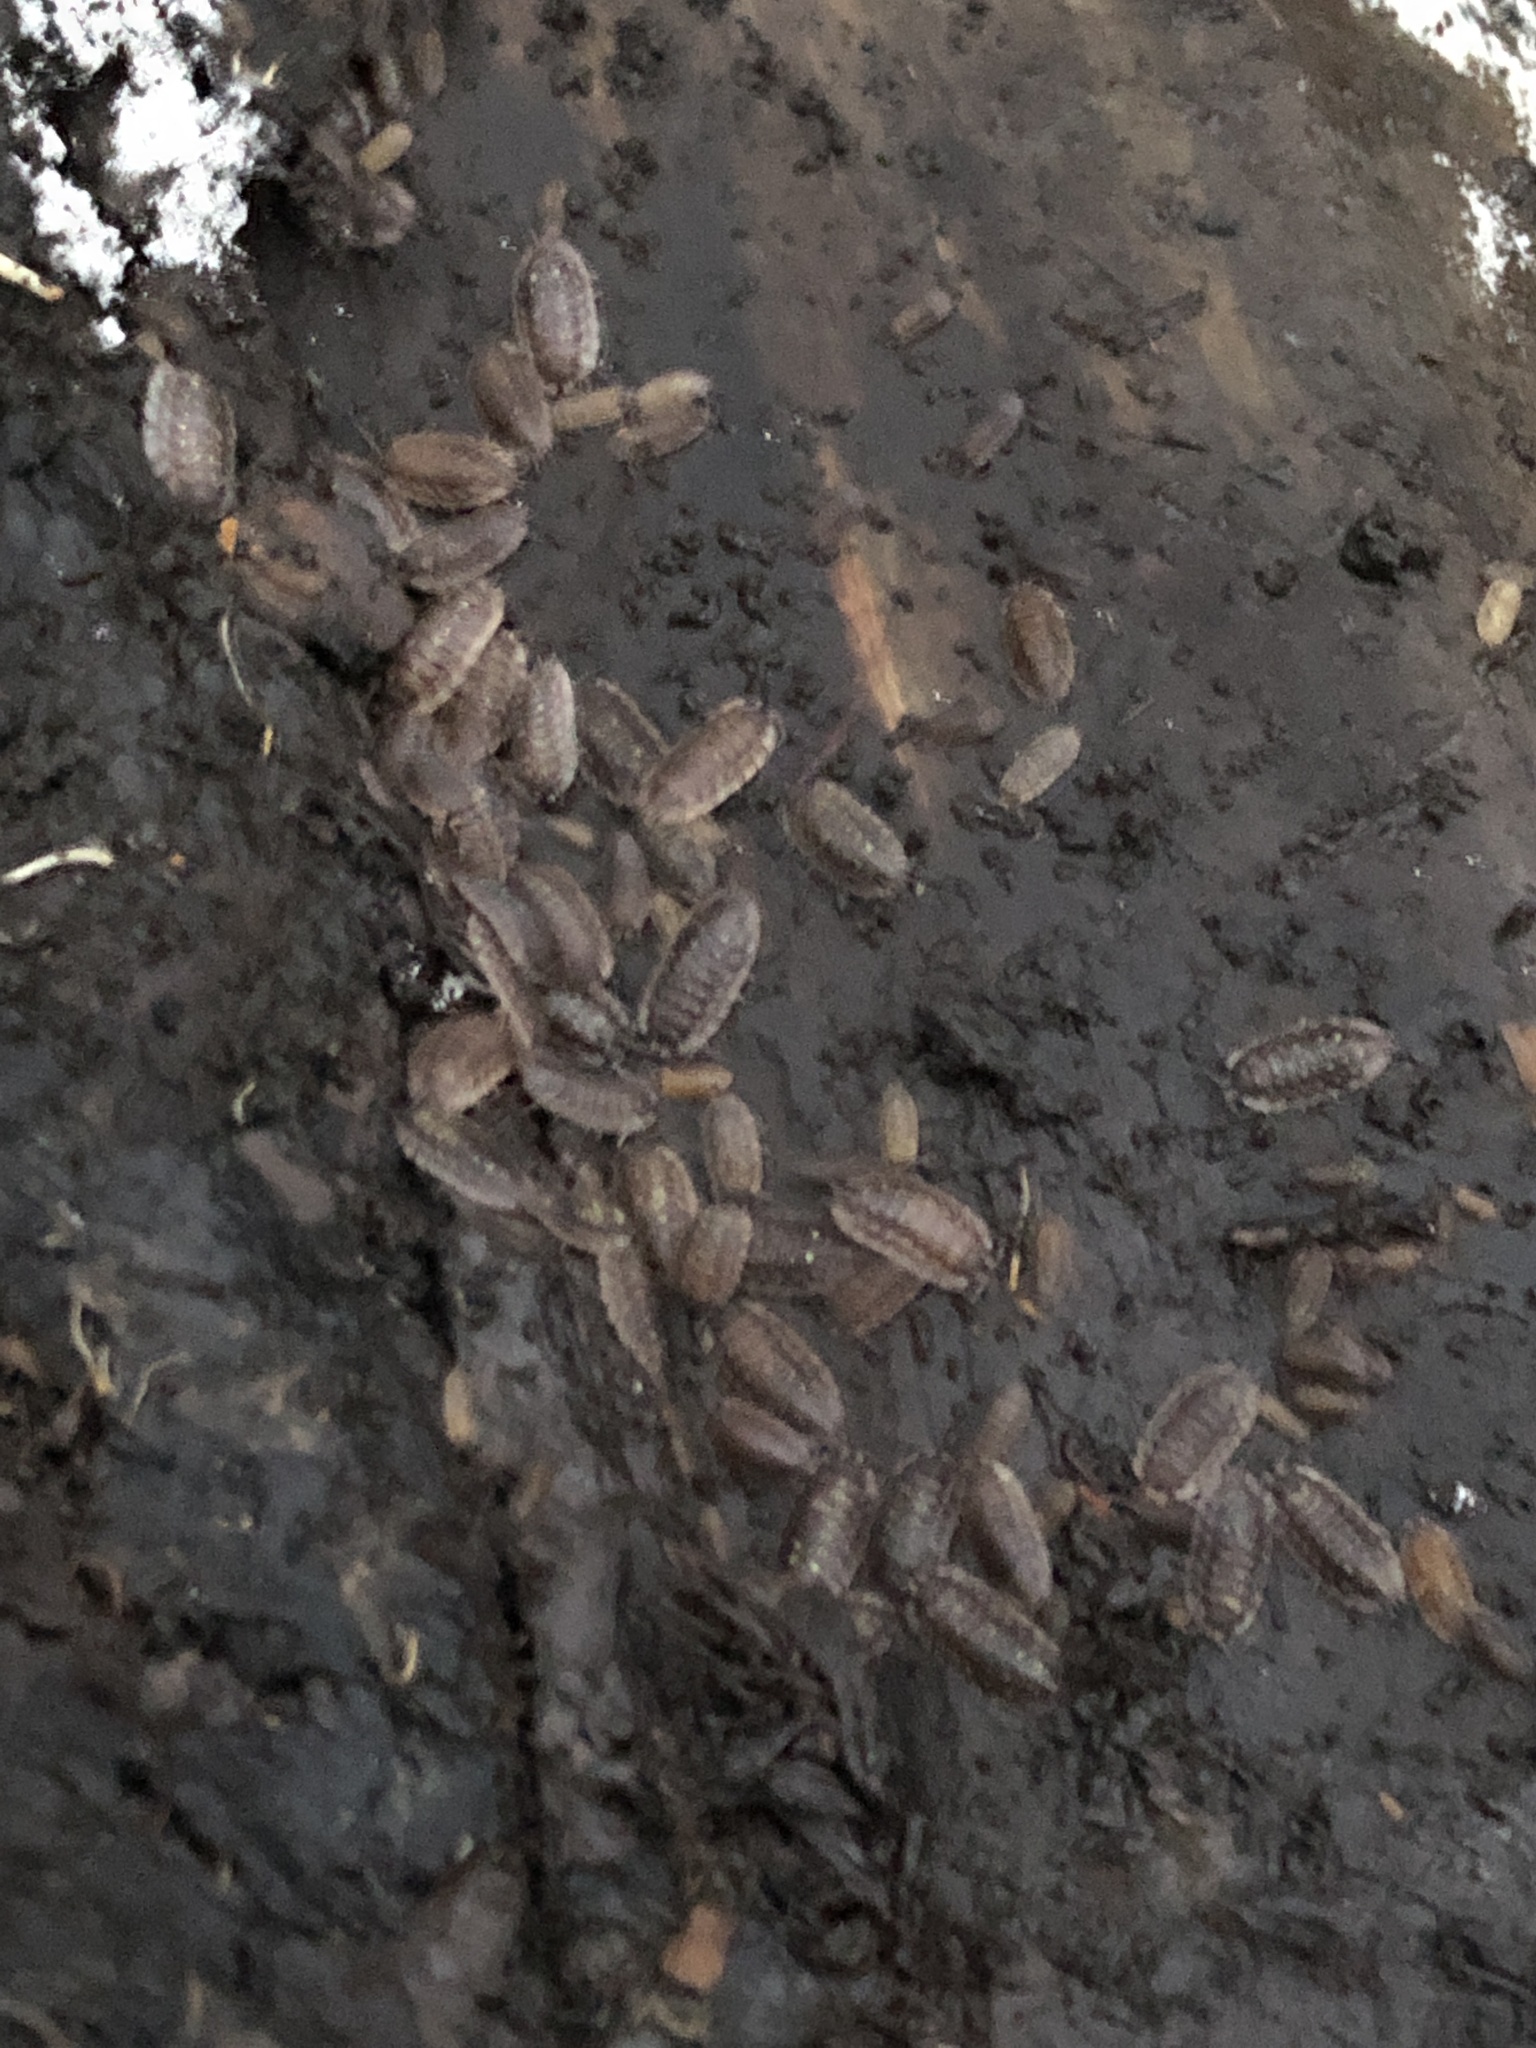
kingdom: Animalia
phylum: Arthropoda
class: Malacostraca
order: Isopoda
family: Oniscidae
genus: Oniscus
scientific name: Oniscus asellus
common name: Common shiny woodlouse
